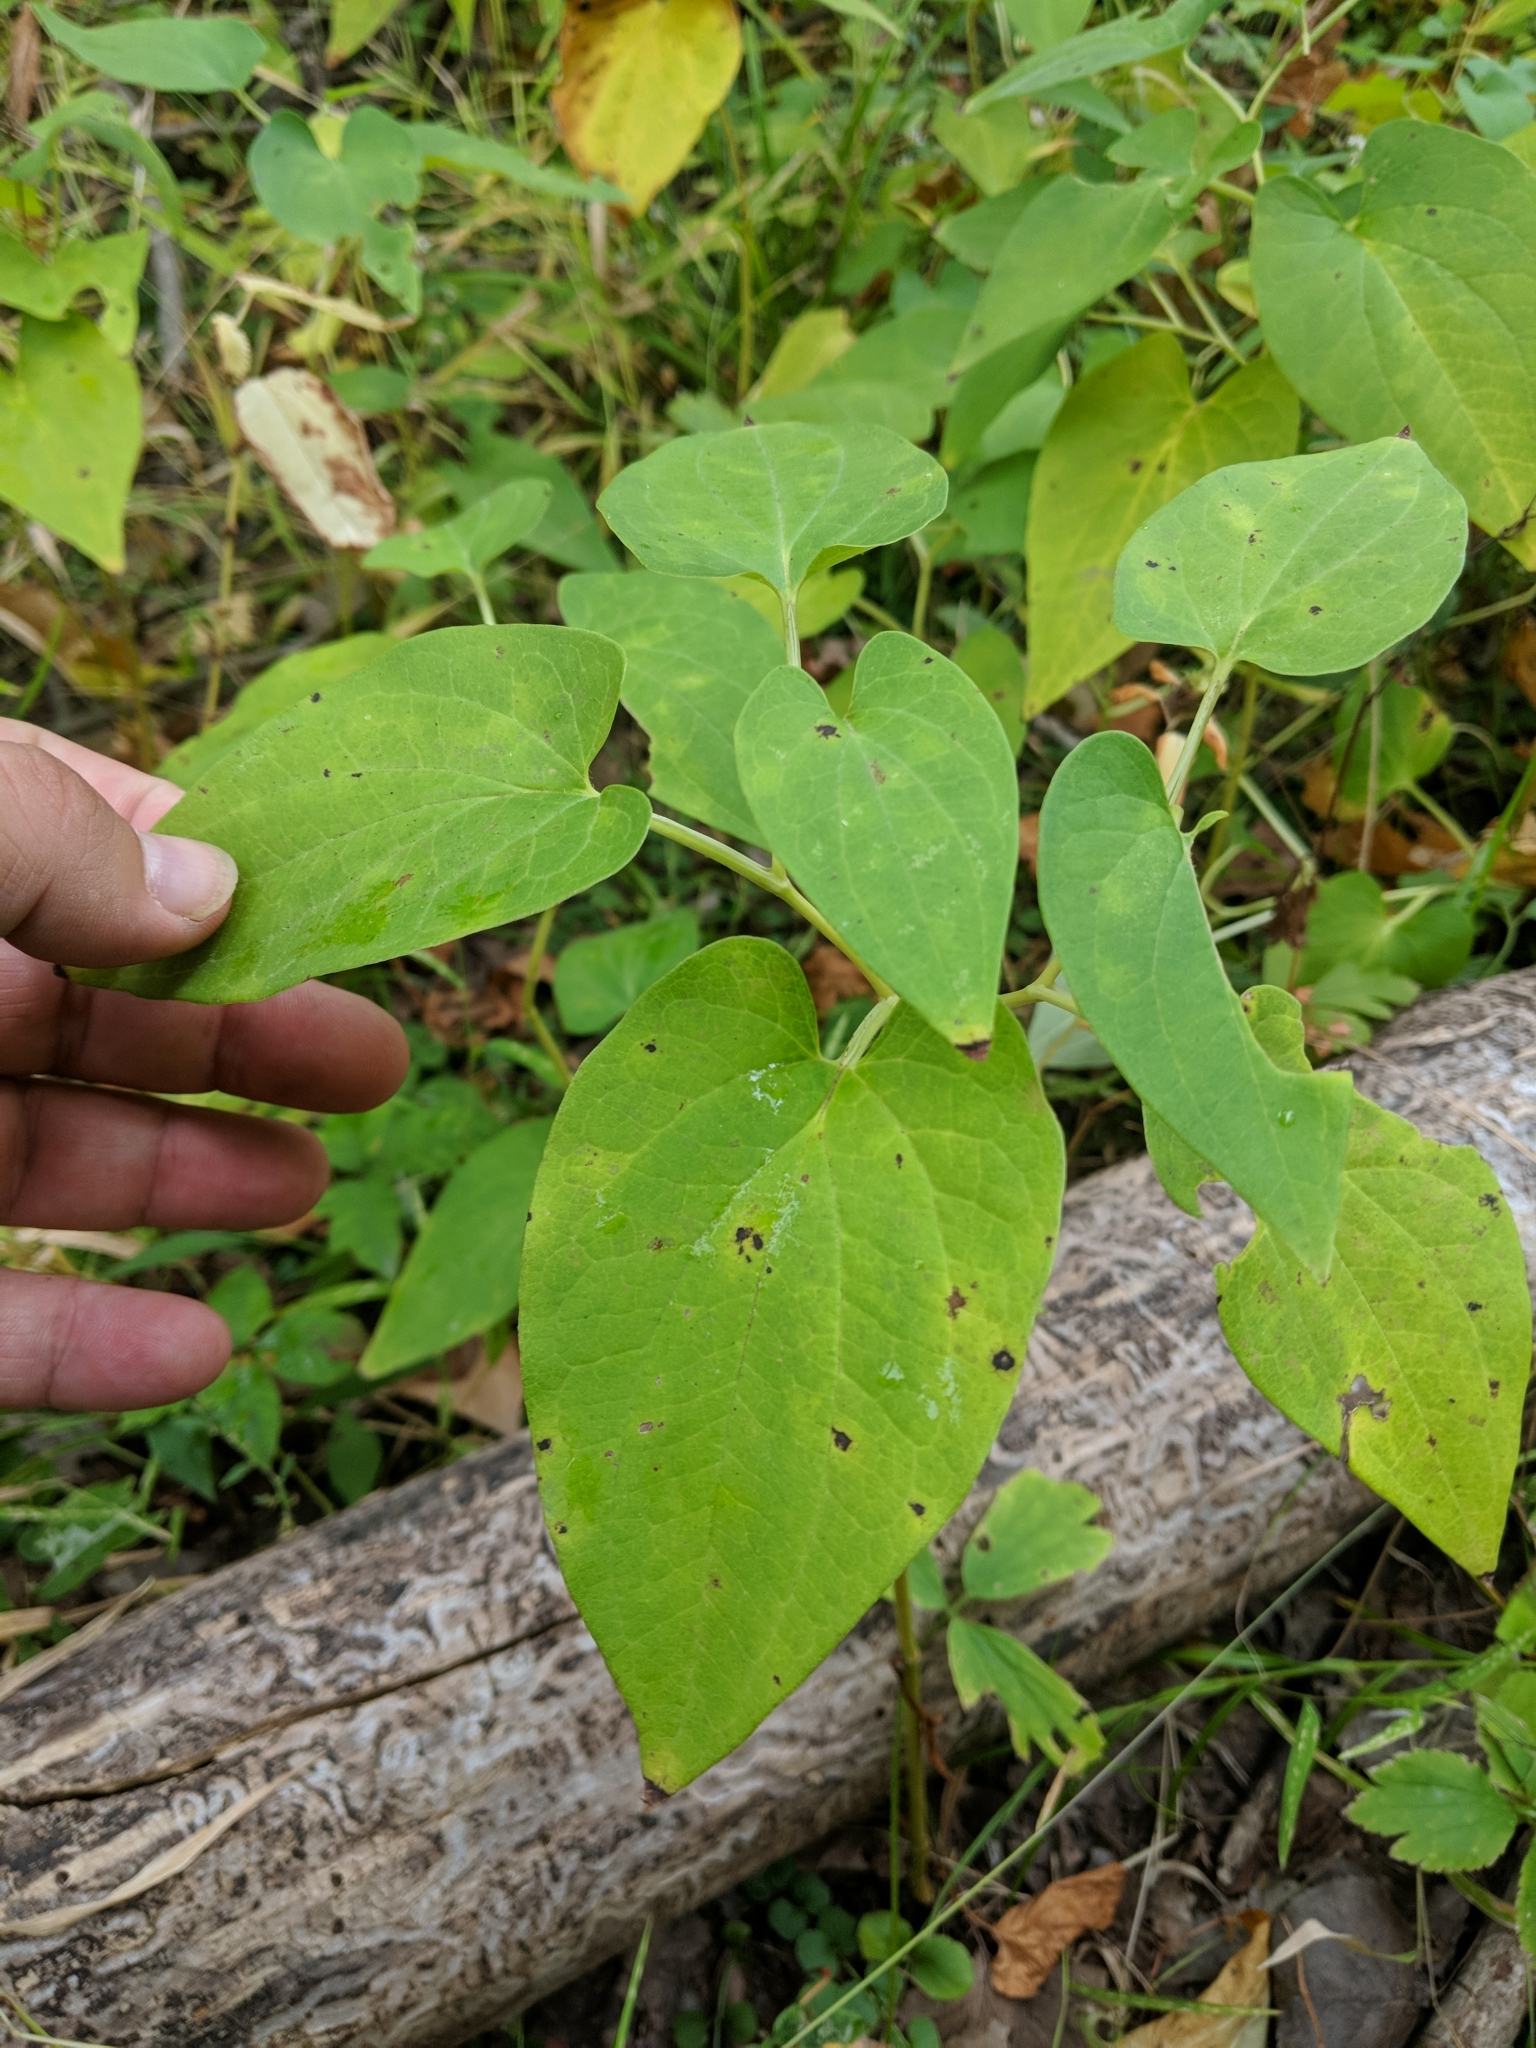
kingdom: Plantae
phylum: Tracheophyta
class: Magnoliopsida
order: Piperales
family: Saururaceae
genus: Saururus
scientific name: Saururus cernuus
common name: Lizard's-tail
